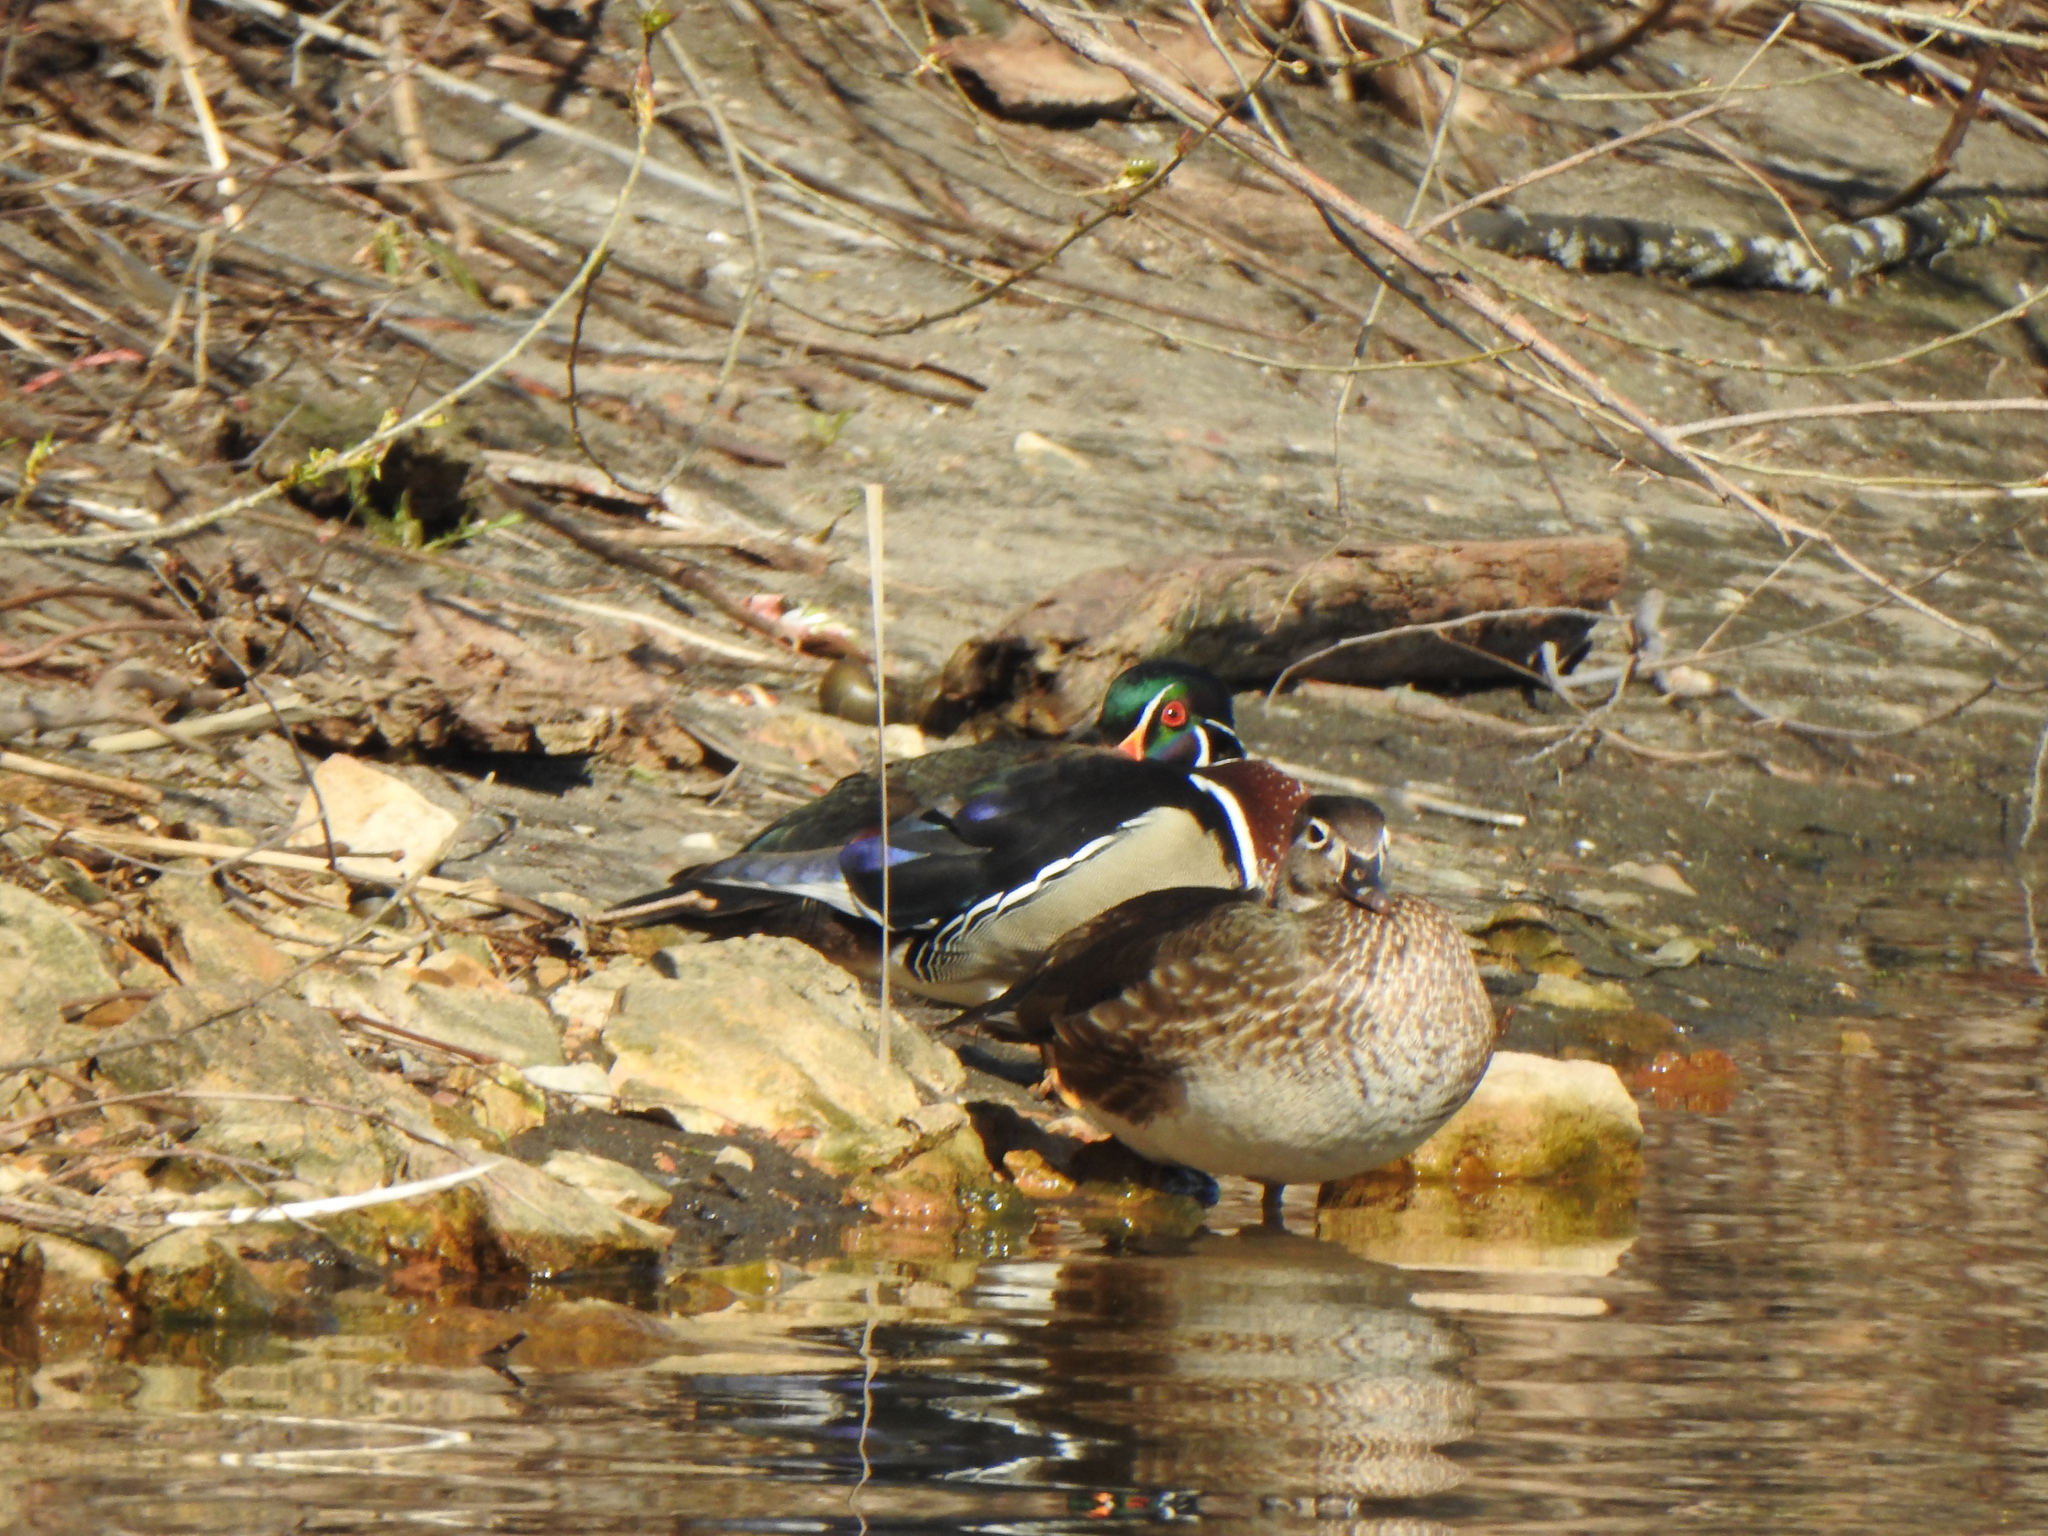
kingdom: Animalia
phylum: Chordata
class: Aves
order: Anseriformes
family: Anatidae
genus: Aix
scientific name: Aix sponsa
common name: Wood duck
